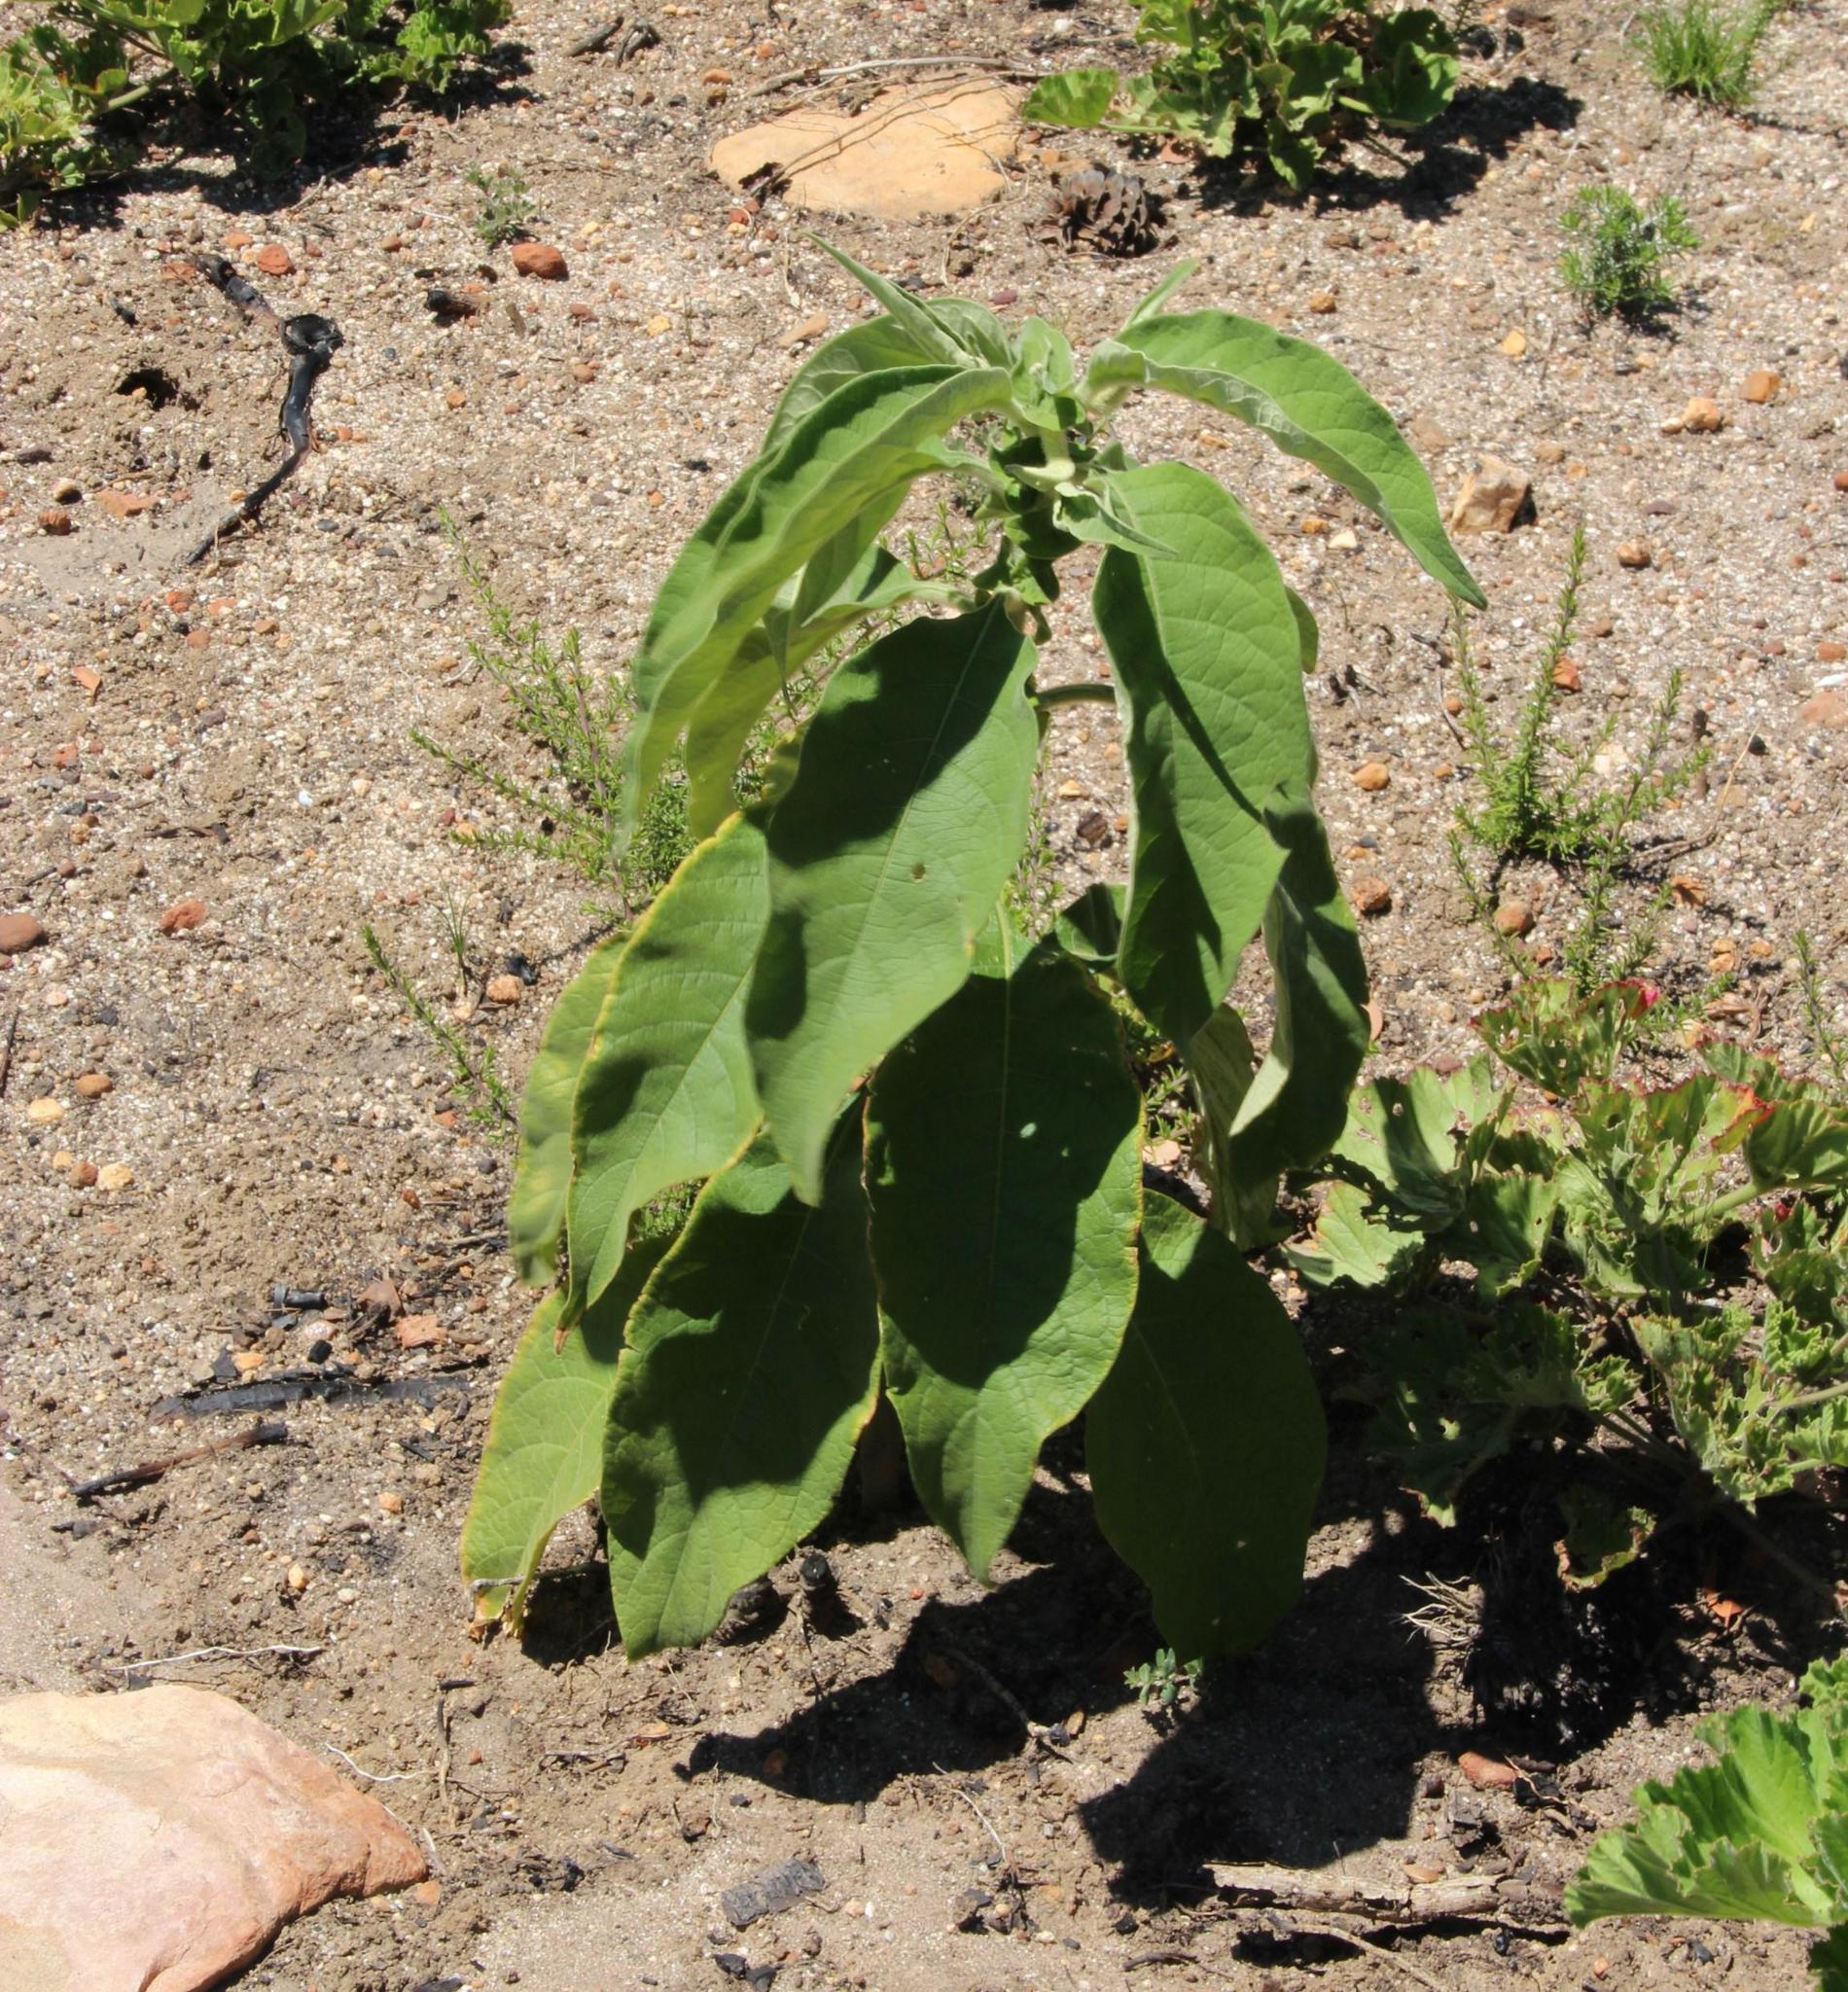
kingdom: Plantae
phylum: Tracheophyta
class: Magnoliopsida
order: Solanales
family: Solanaceae
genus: Solanum
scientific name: Solanum mauritianum
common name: Earleaf nightshade
